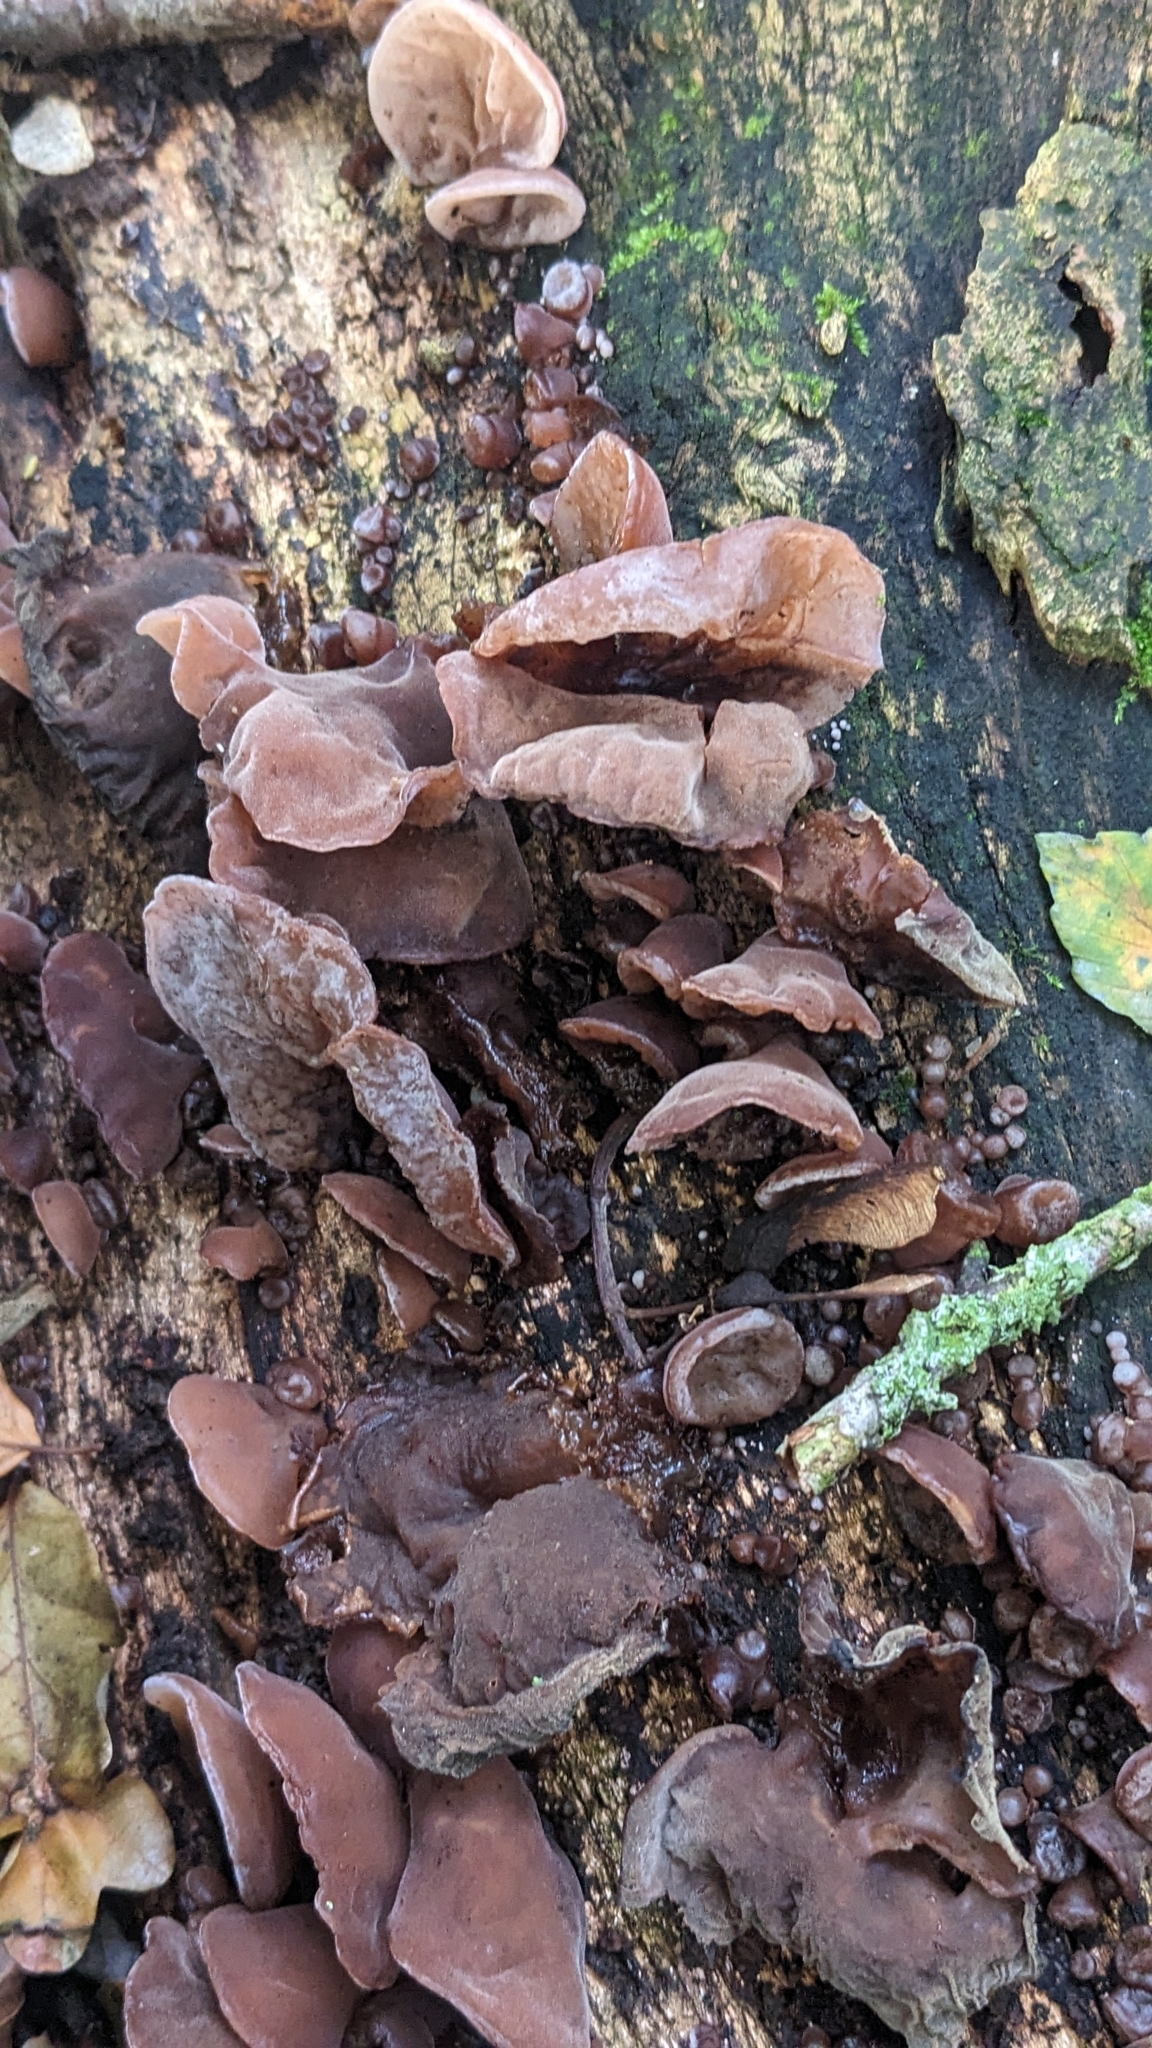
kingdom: Fungi
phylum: Basidiomycota
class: Agaricomycetes
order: Auriculariales
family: Auriculariaceae
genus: Auricularia
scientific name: Auricularia auricula-judae
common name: Jelly ear
